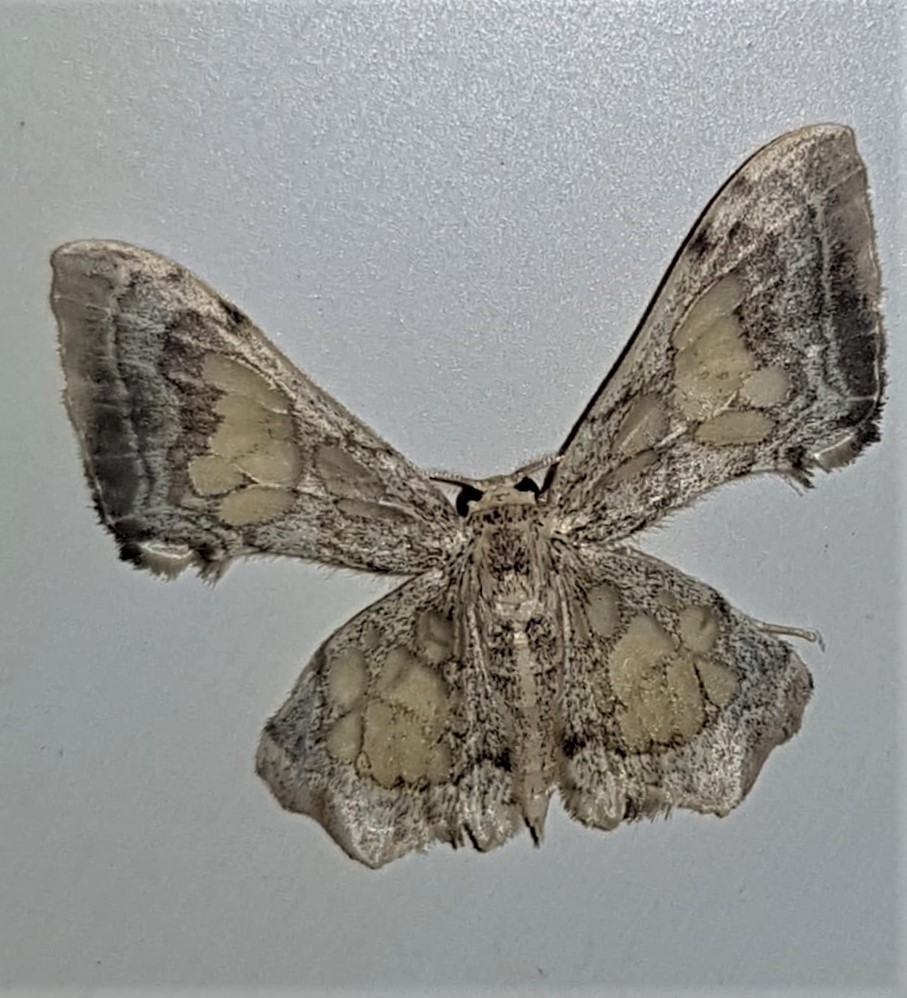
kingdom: Animalia
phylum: Arthropoda
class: Insecta
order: Lepidoptera
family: Geometridae
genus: Pseudasellodes
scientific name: Pseudasellodes hebetior
